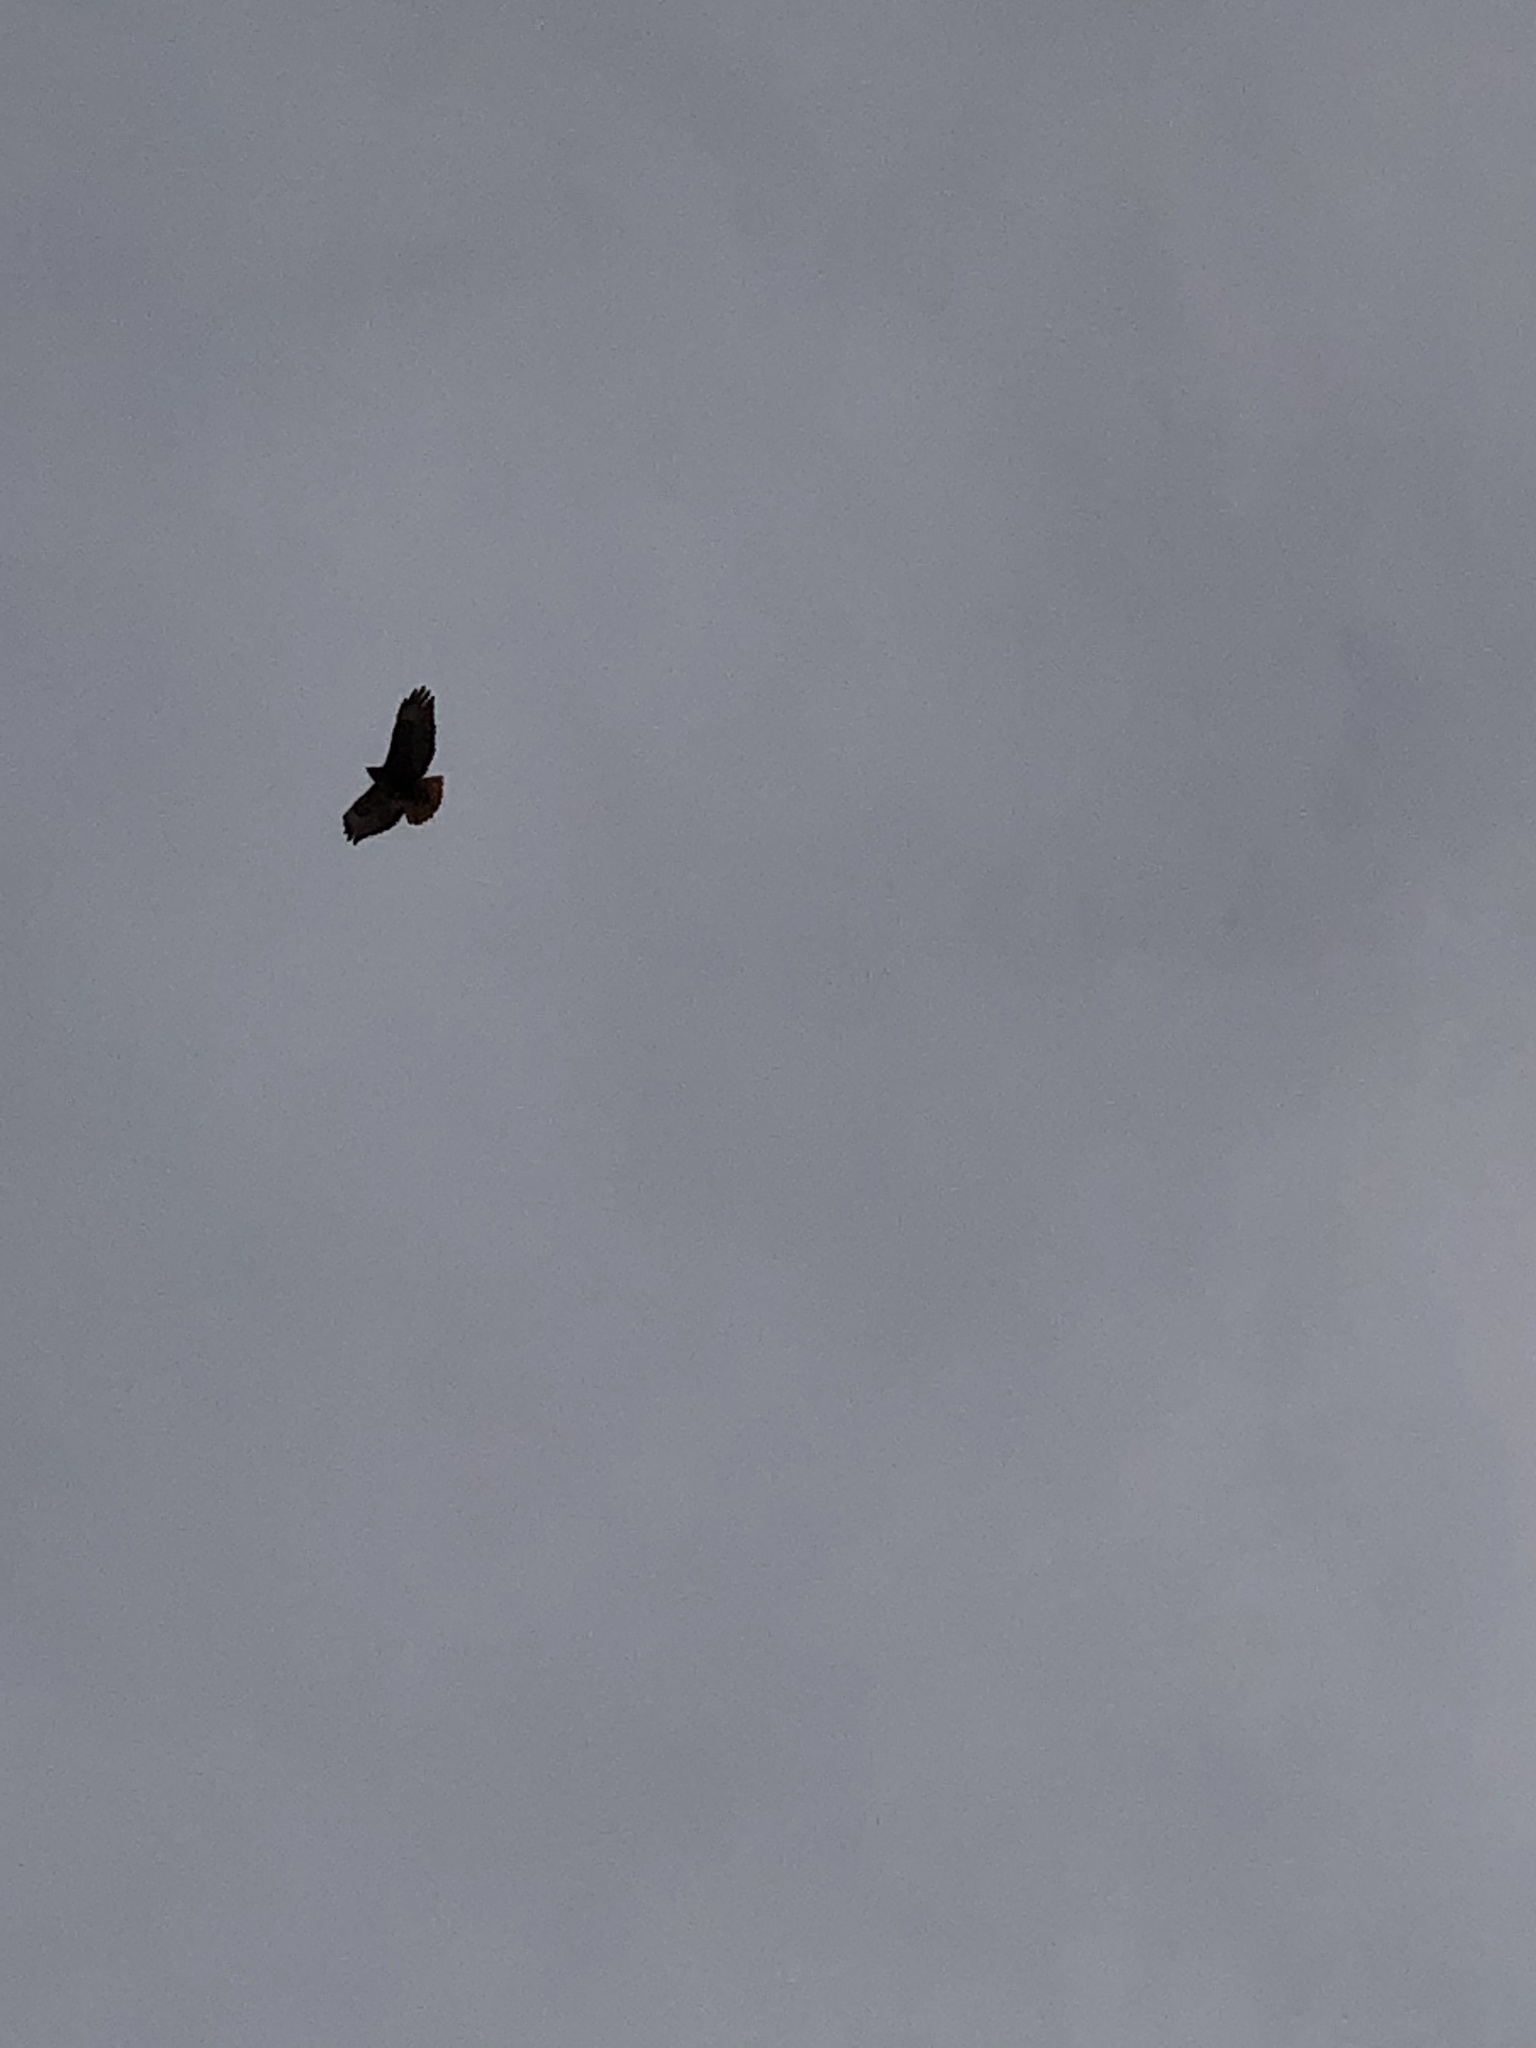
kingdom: Animalia
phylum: Chordata
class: Aves
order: Accipitriformes
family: Accipitridae
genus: Buteo
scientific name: Buteo jamaicensis
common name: Red-tailed hawk
